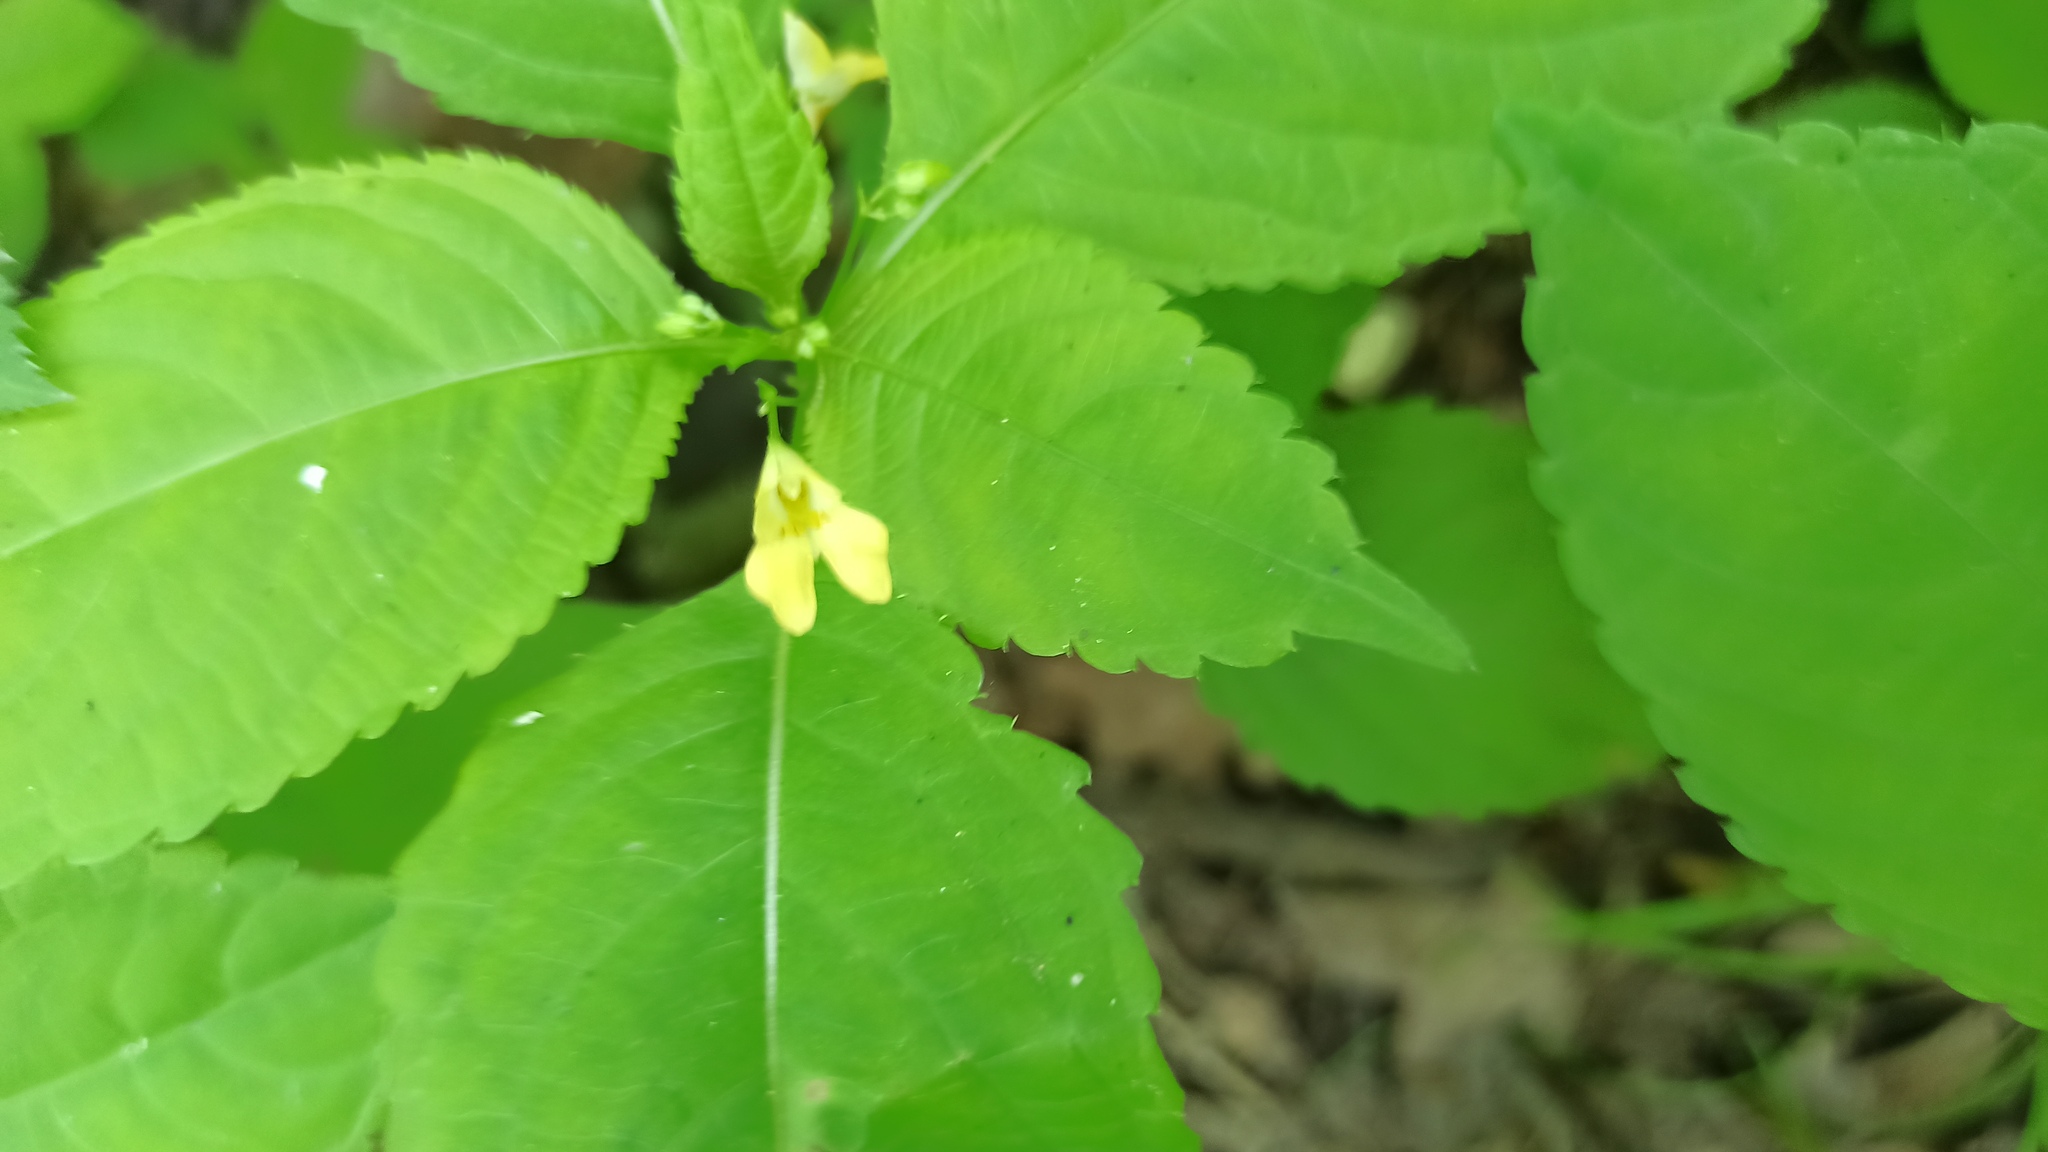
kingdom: Plantae
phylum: Tracheophyta
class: Magnoliopsida
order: Ericales
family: Balsaminaceae
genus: Impatiens
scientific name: Impatiens parviflora
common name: Small balsam
